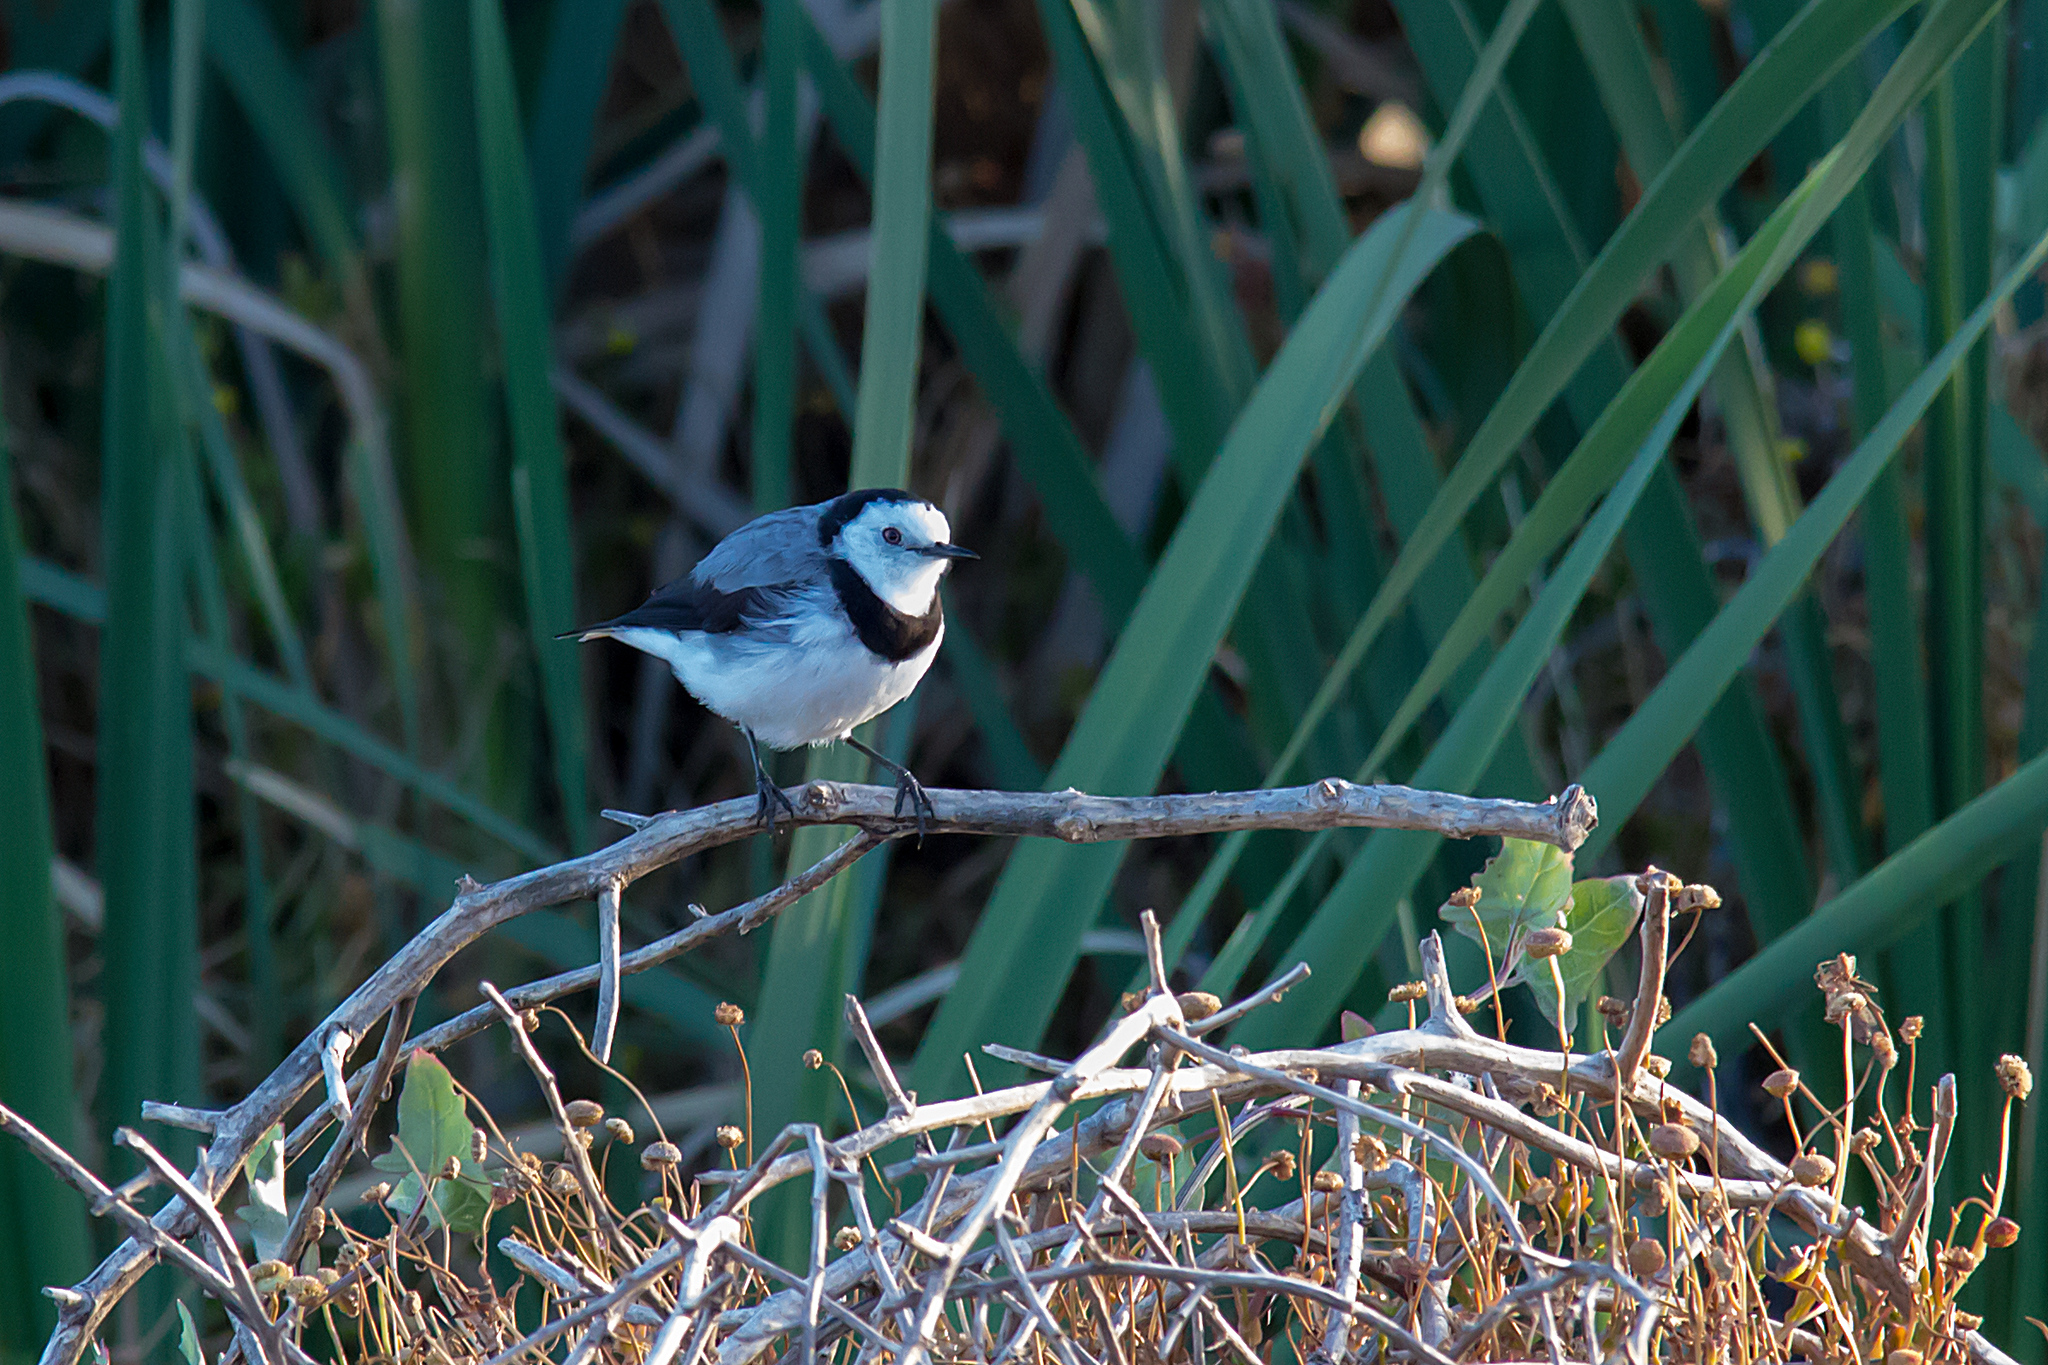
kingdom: Animalia
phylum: Chordata
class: Aves
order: Passeriformes
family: Meliphagidae
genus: Epthianura
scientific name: Epthianura albifrons
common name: White-fronted chat
